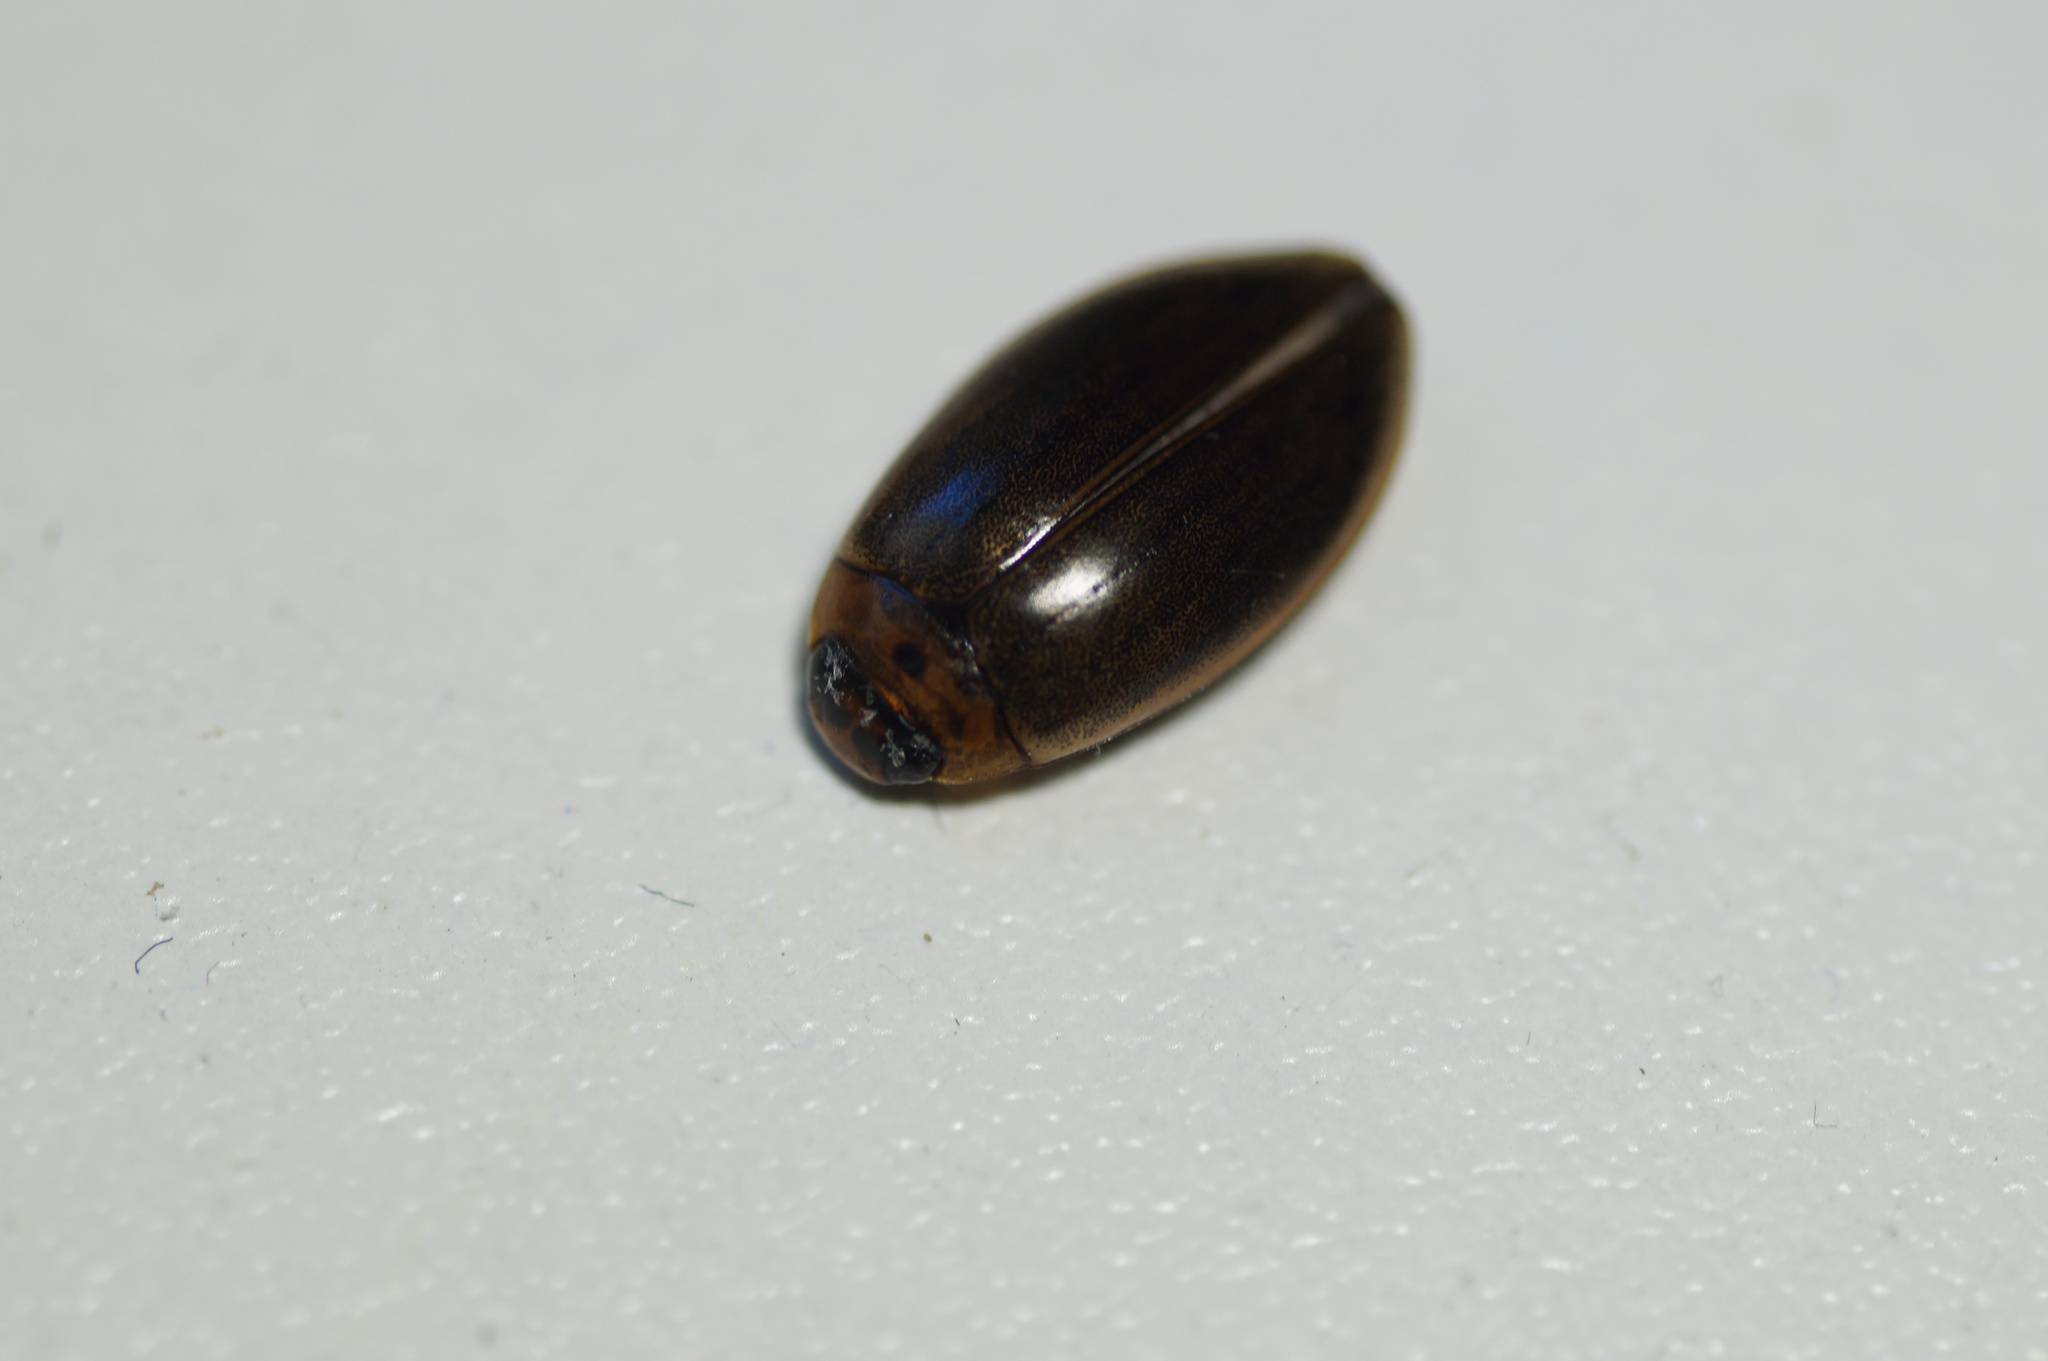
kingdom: Animalia
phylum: Arthropoda
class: Insecta
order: Coleoptera
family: Dytiscidae
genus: Rhantus
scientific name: Rhantus
